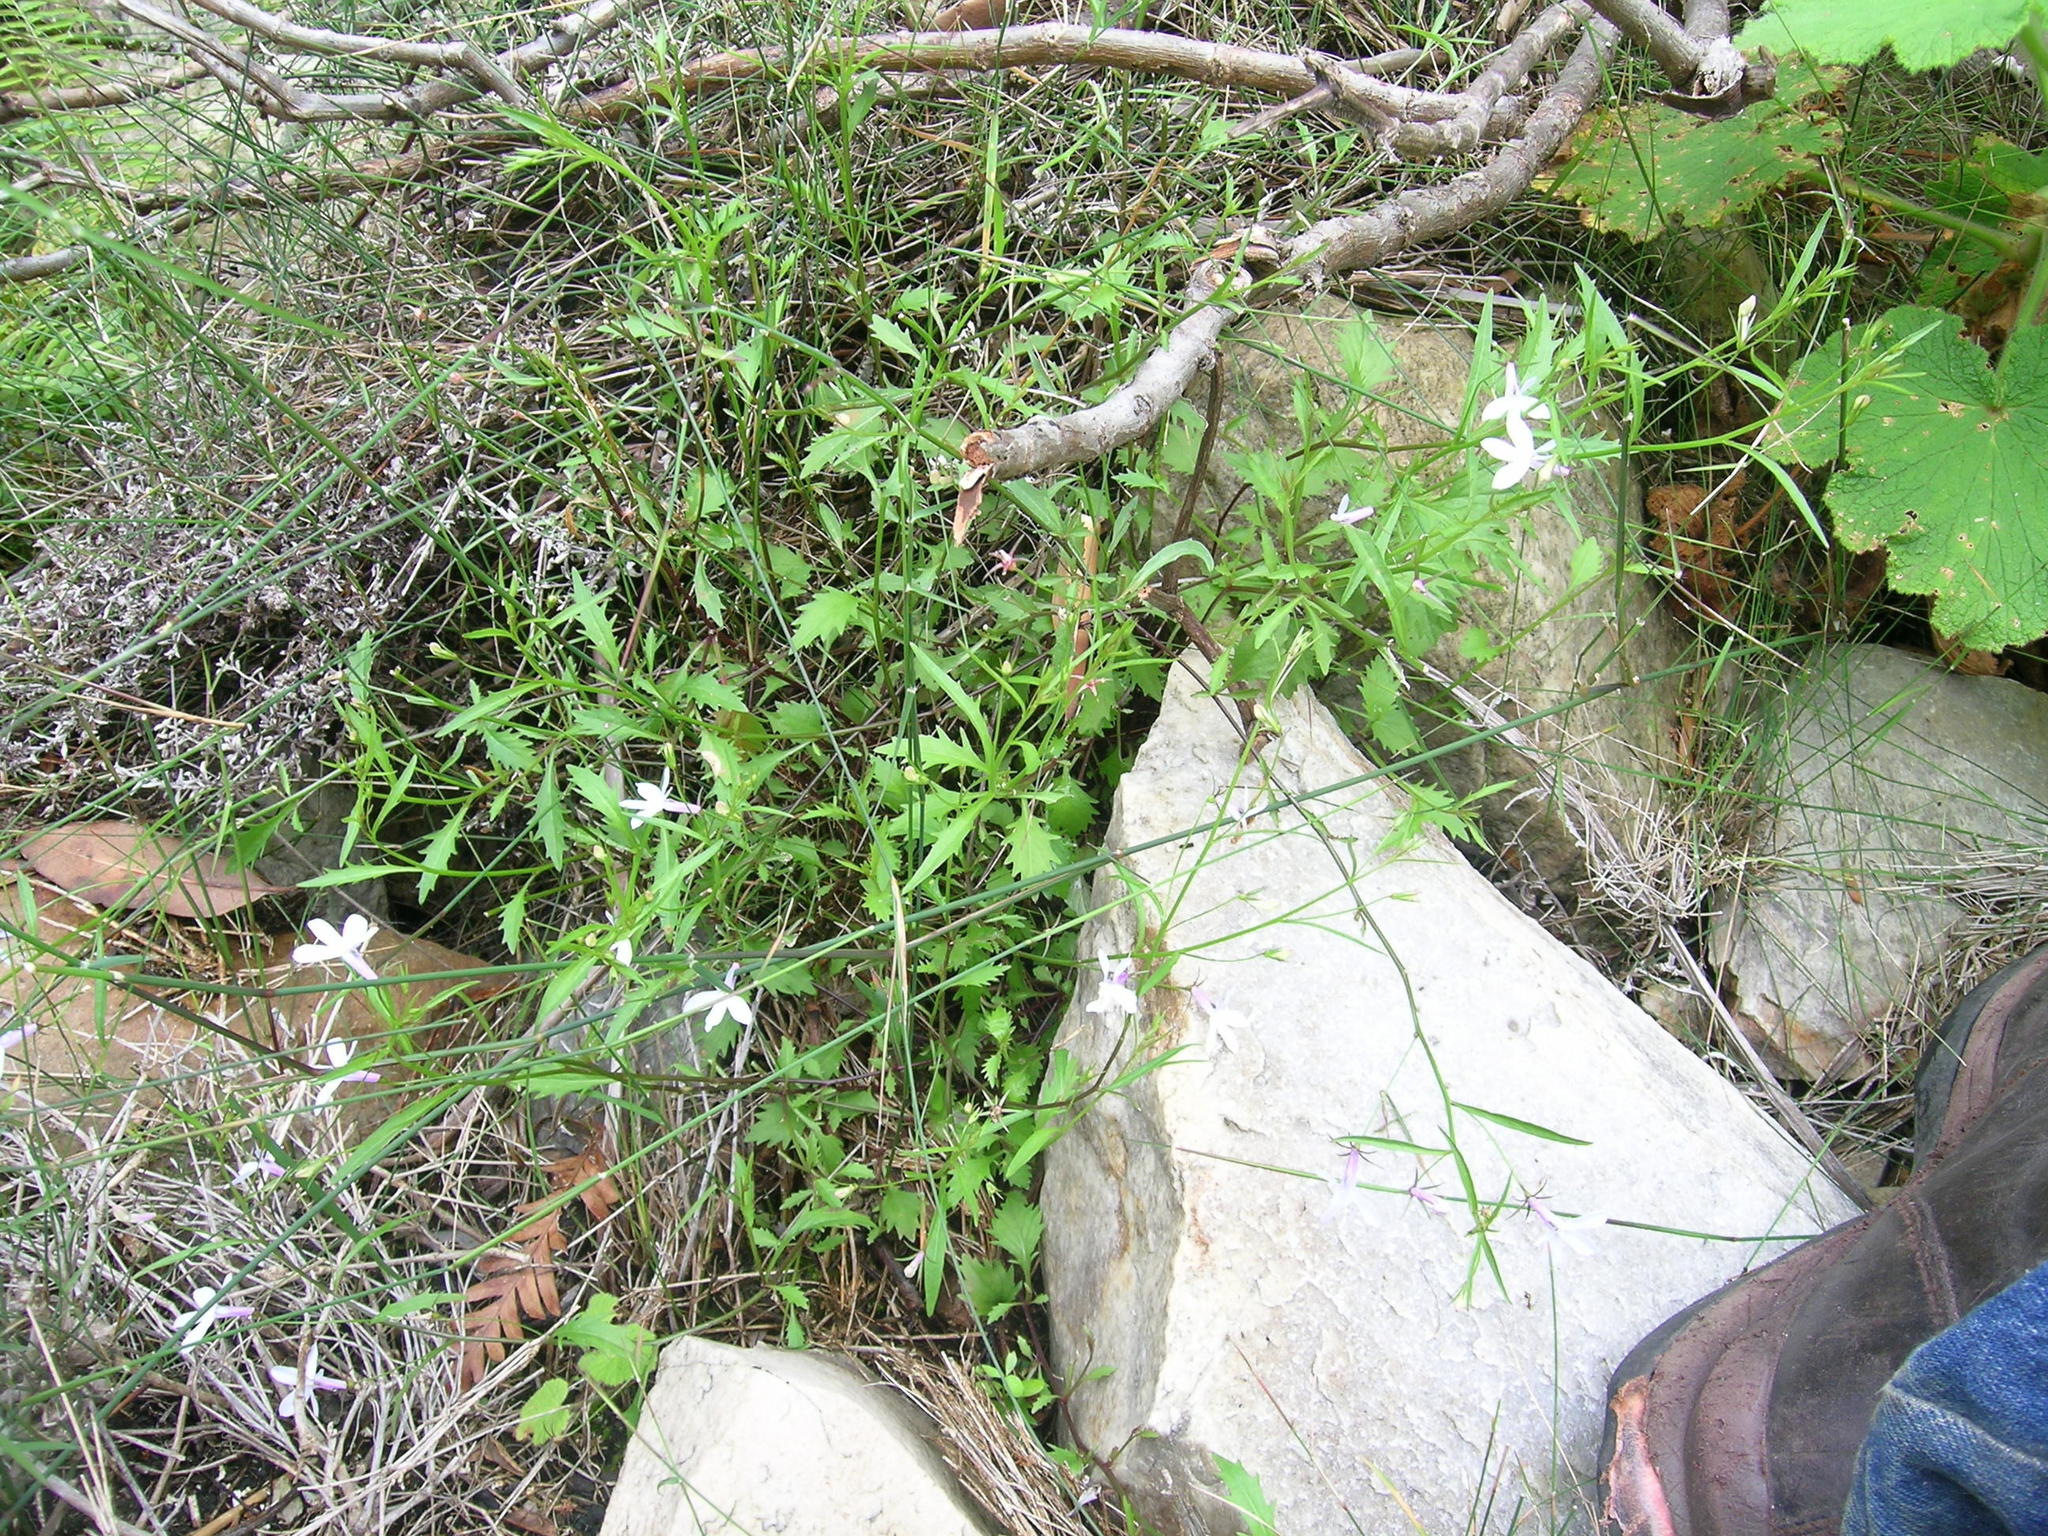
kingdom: Plantae
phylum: Tracheophyta
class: Magnoliopsida
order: Asterales
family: Campanulaceae
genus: Lobelia
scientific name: Lobelia hypsibata
